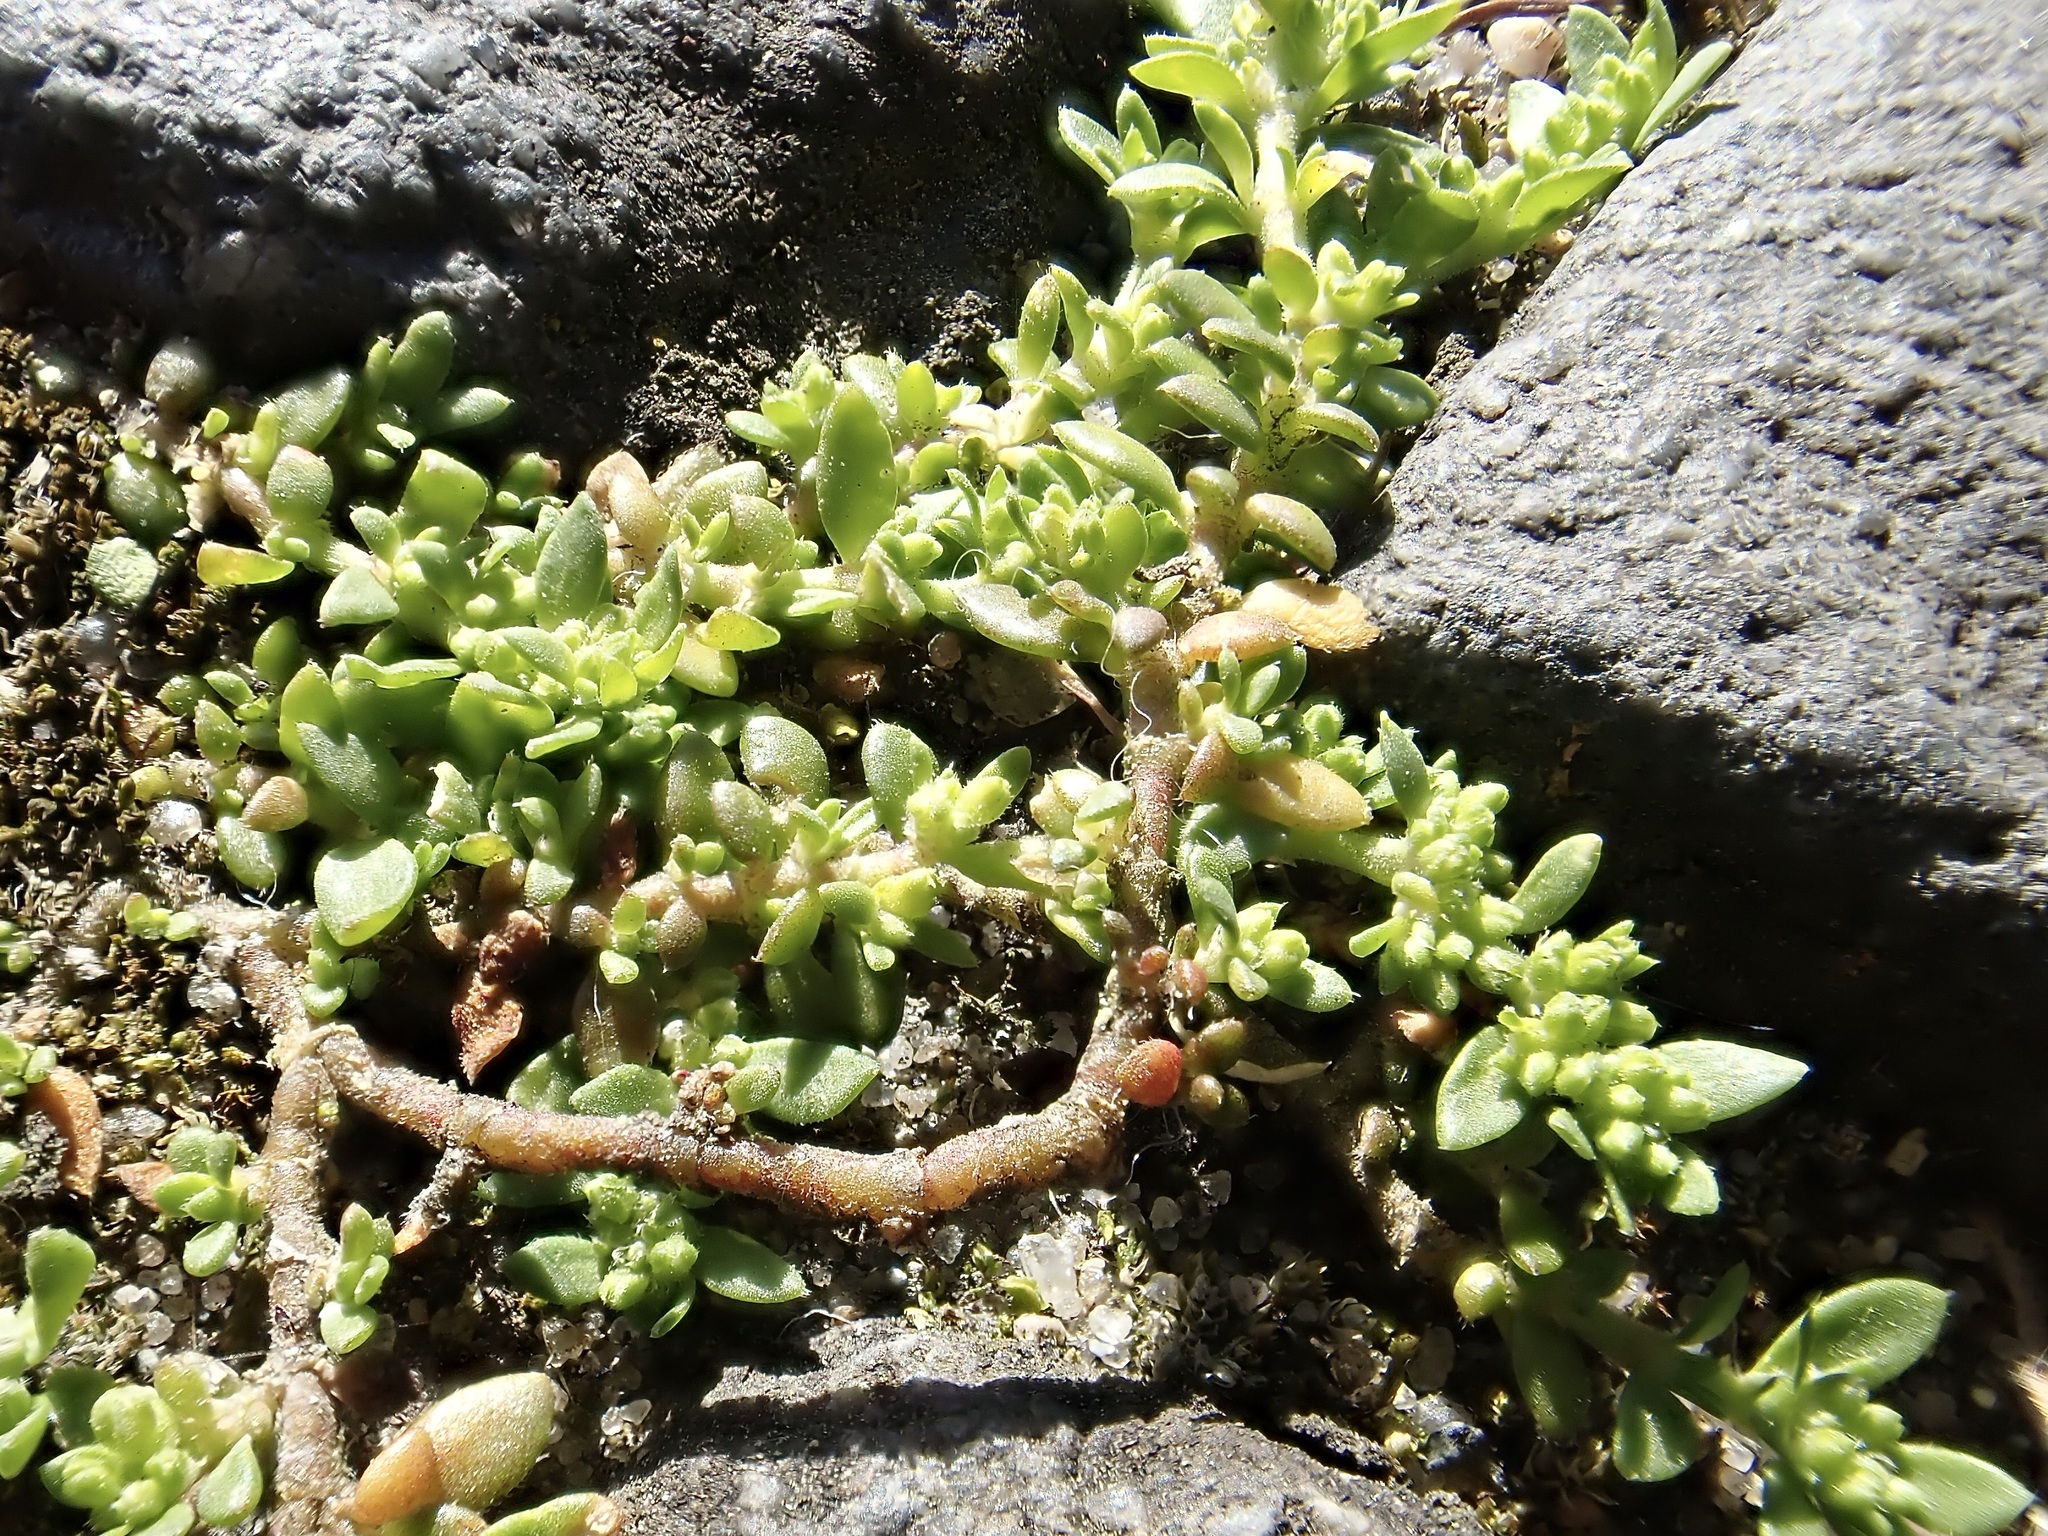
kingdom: Plantae
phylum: Tracheophyta
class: Magnoliopsida
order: Caryophyllales
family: Caryophyllaceae
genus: Herniaria
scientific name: Herniaria glabra
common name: Smooth rupturewort
